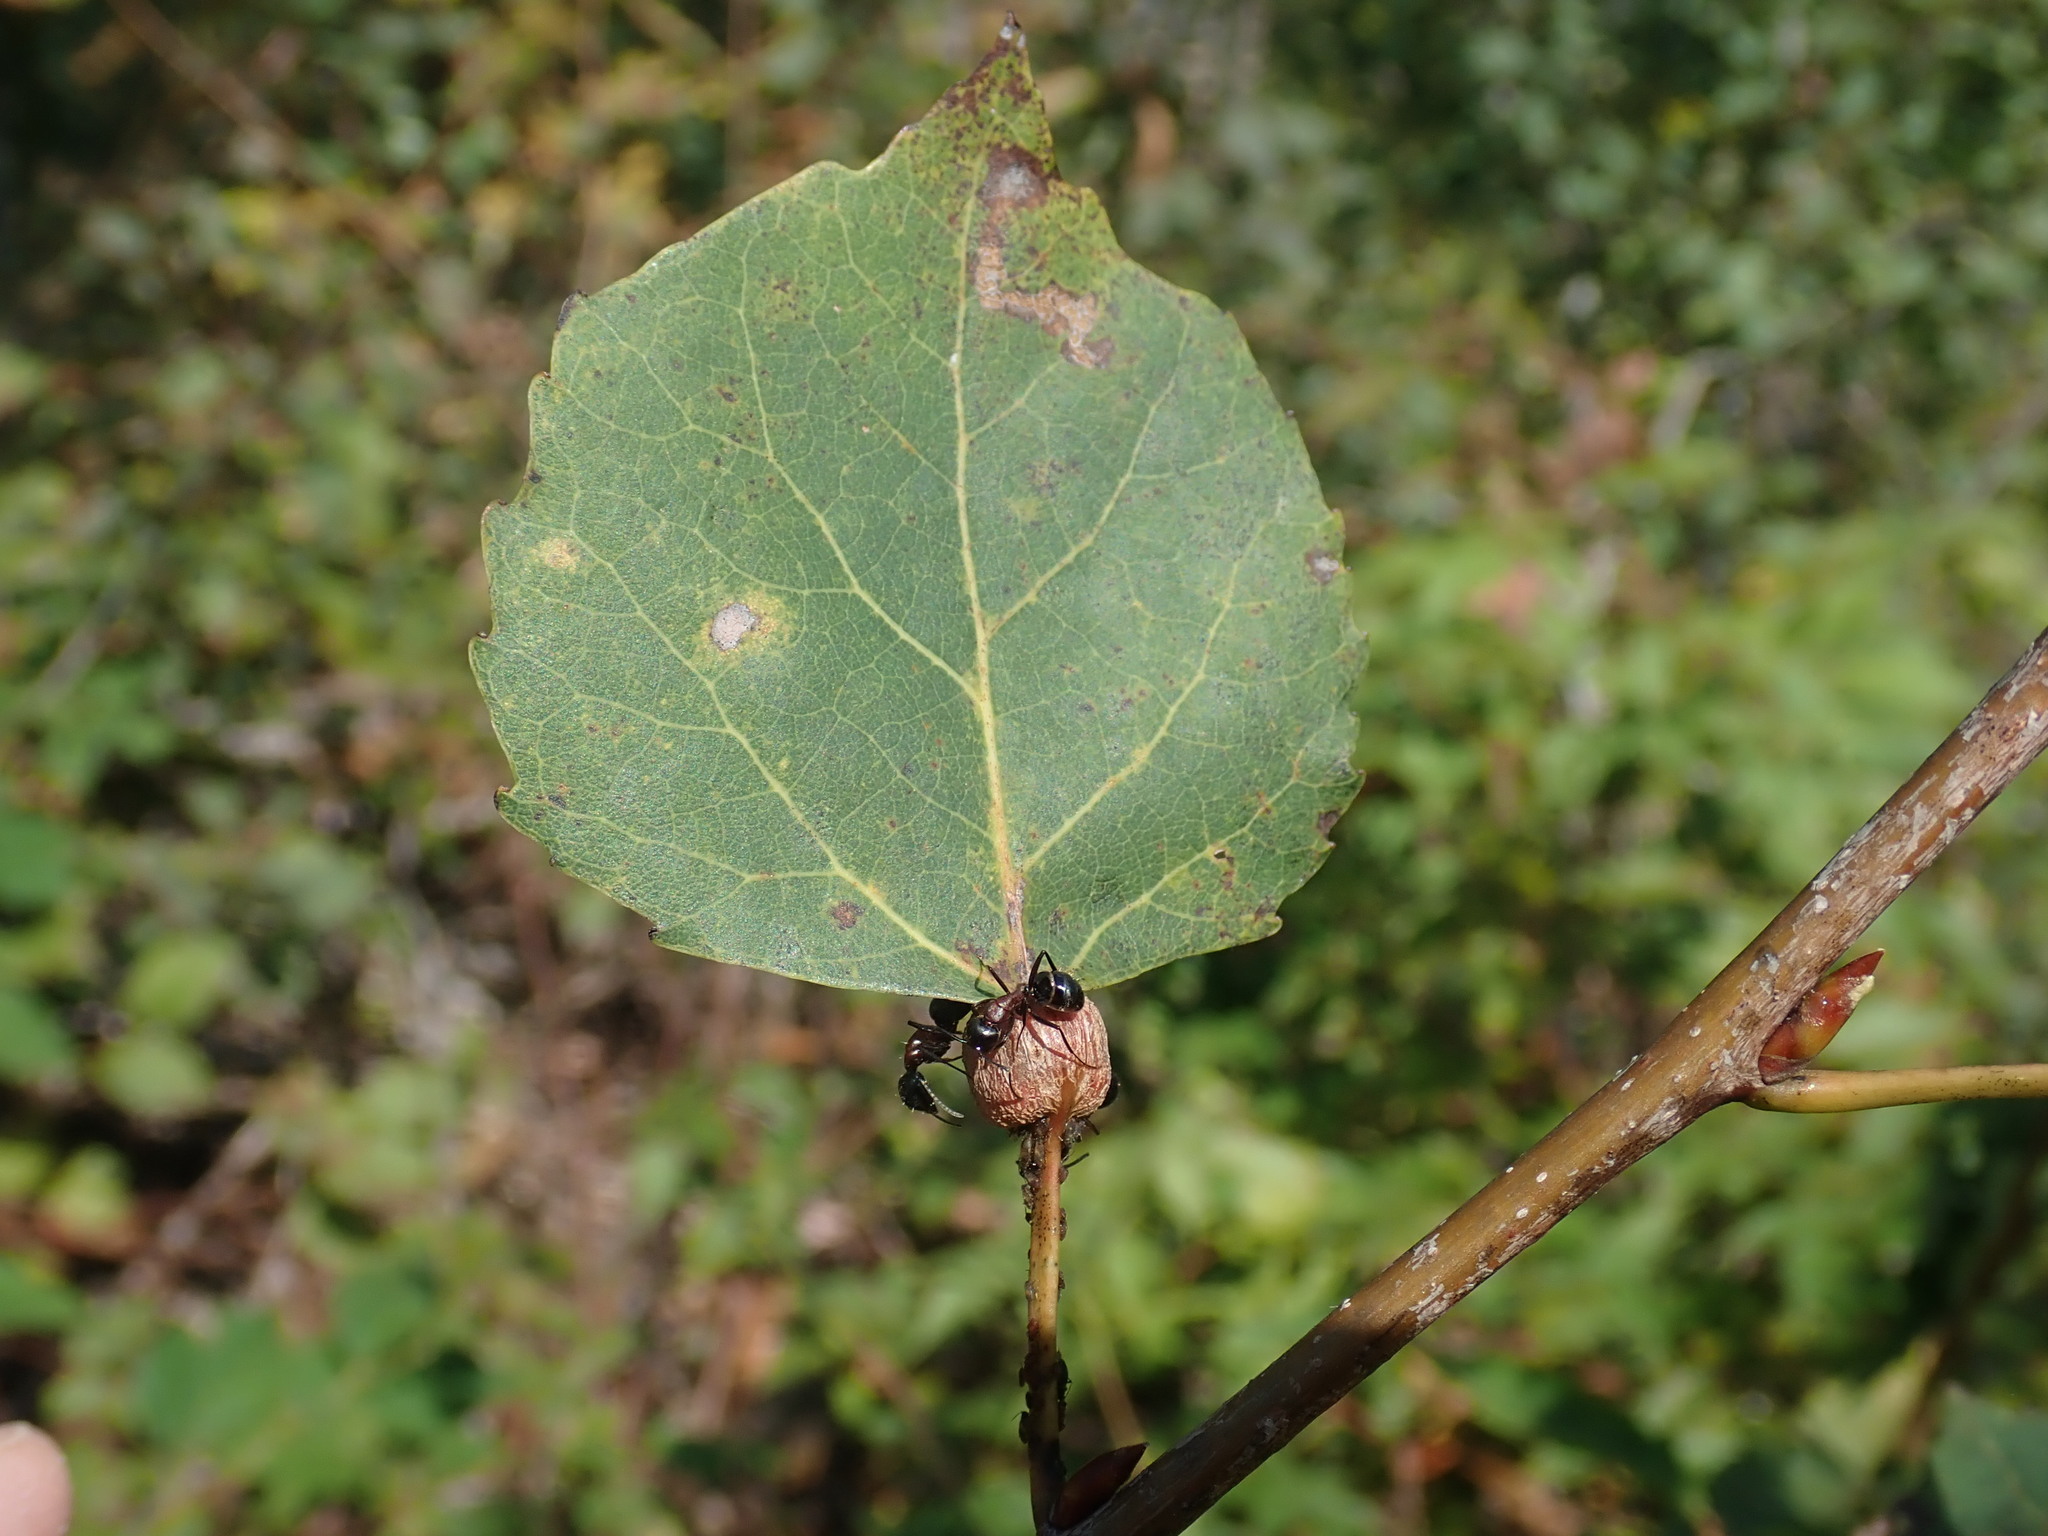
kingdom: Animalia
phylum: Arthropoda
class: Insecta
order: Lepidoptera
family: Nepticulidae
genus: Ectoedemia
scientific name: Ectoedemia populella
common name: Aspen petiole gall moth
